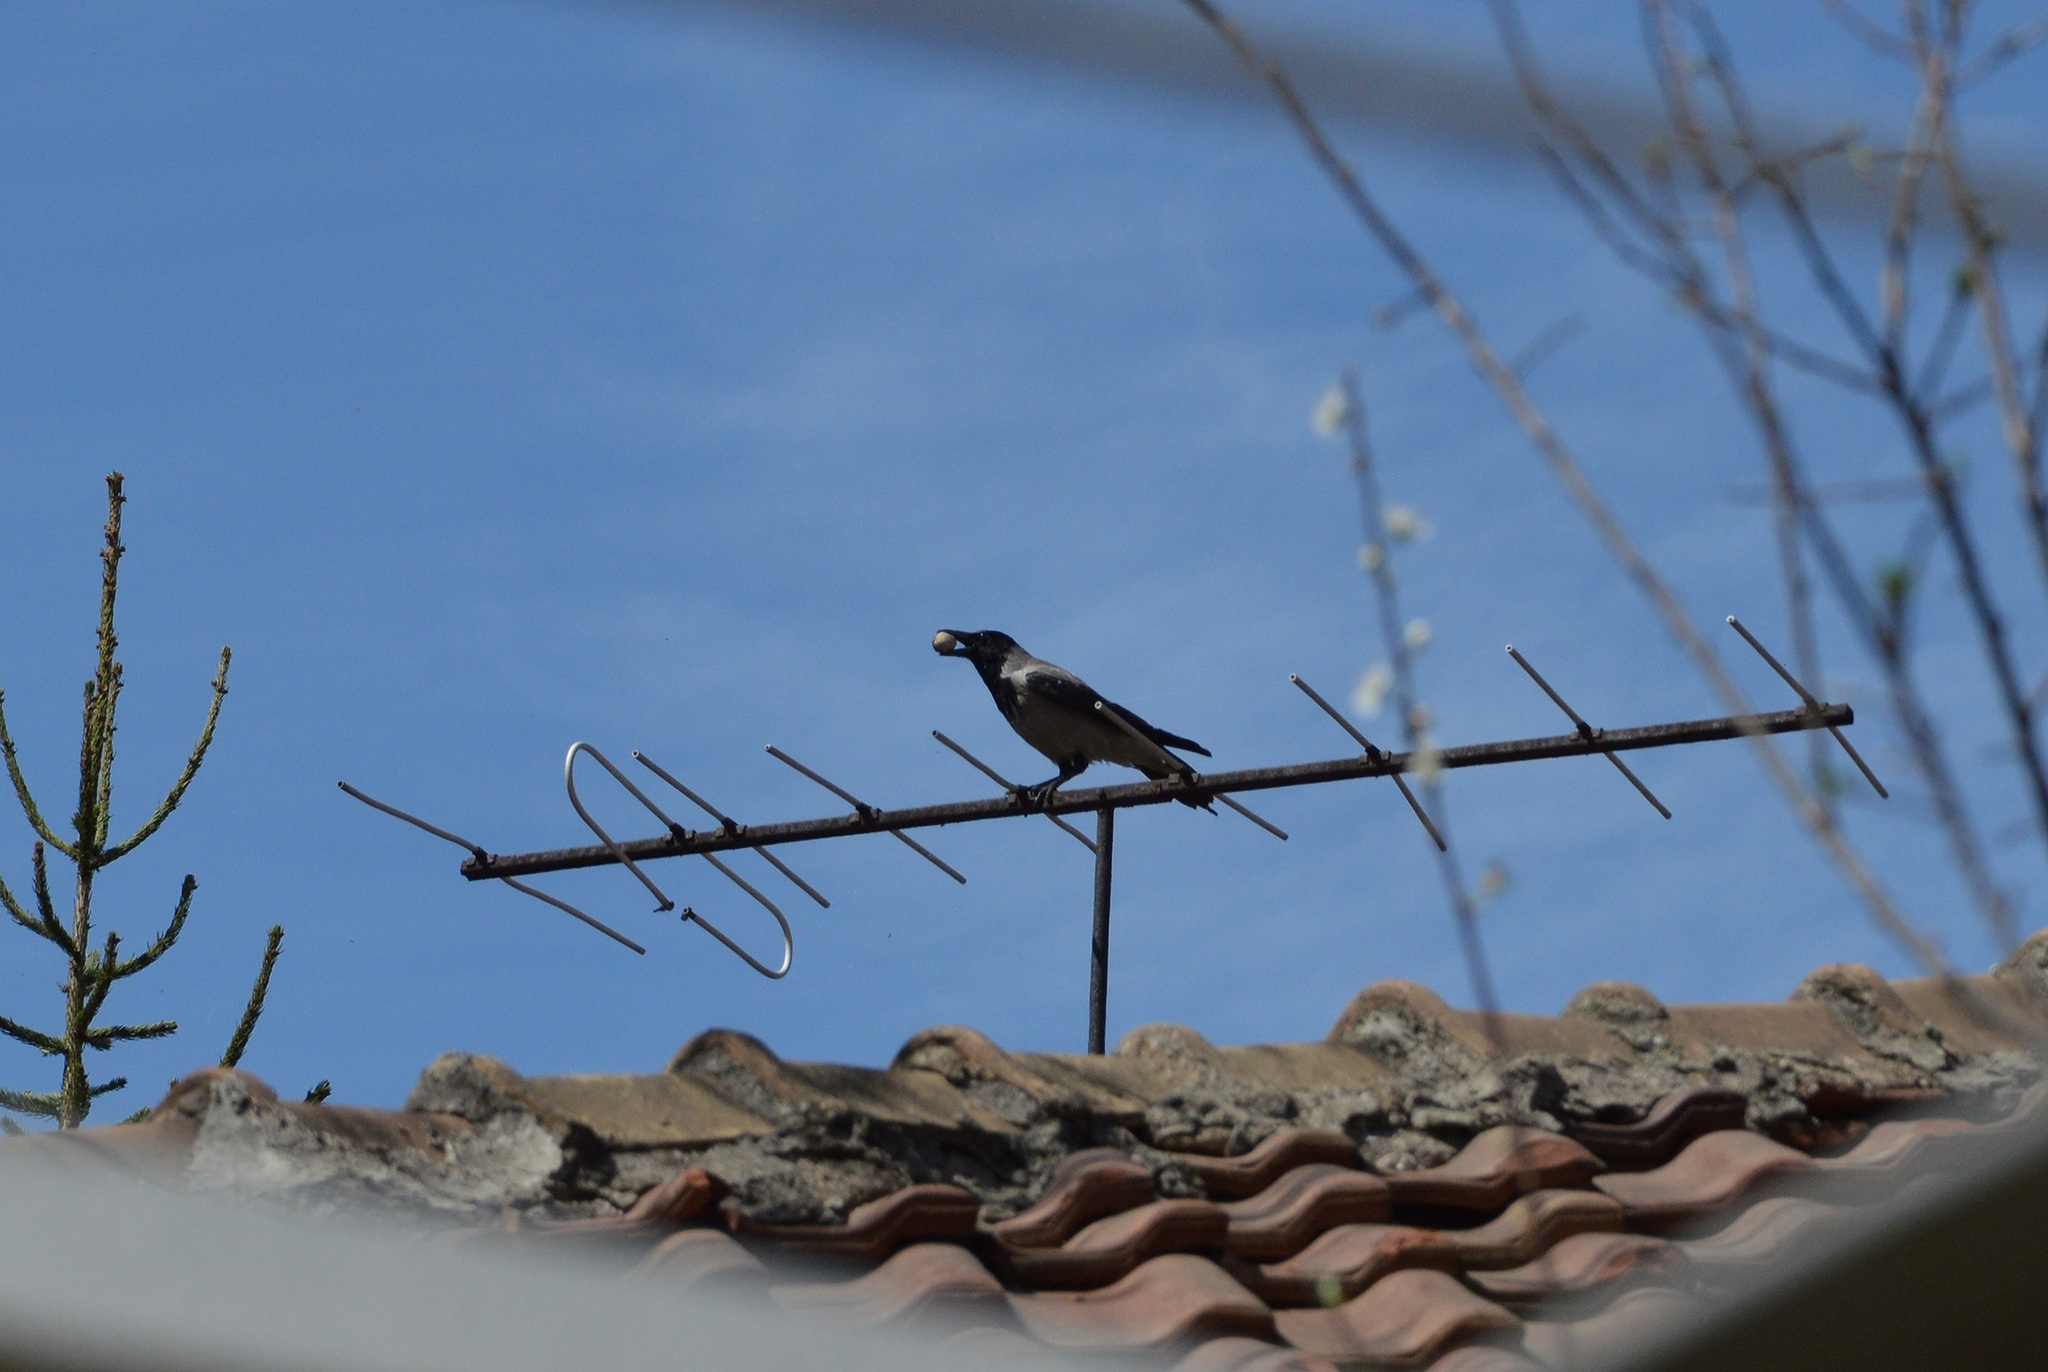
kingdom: Animalia
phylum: Chordata
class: Aves
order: Passeriformes
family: Corvidae
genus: Corvus
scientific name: Corvus cornix
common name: Hooded crow
